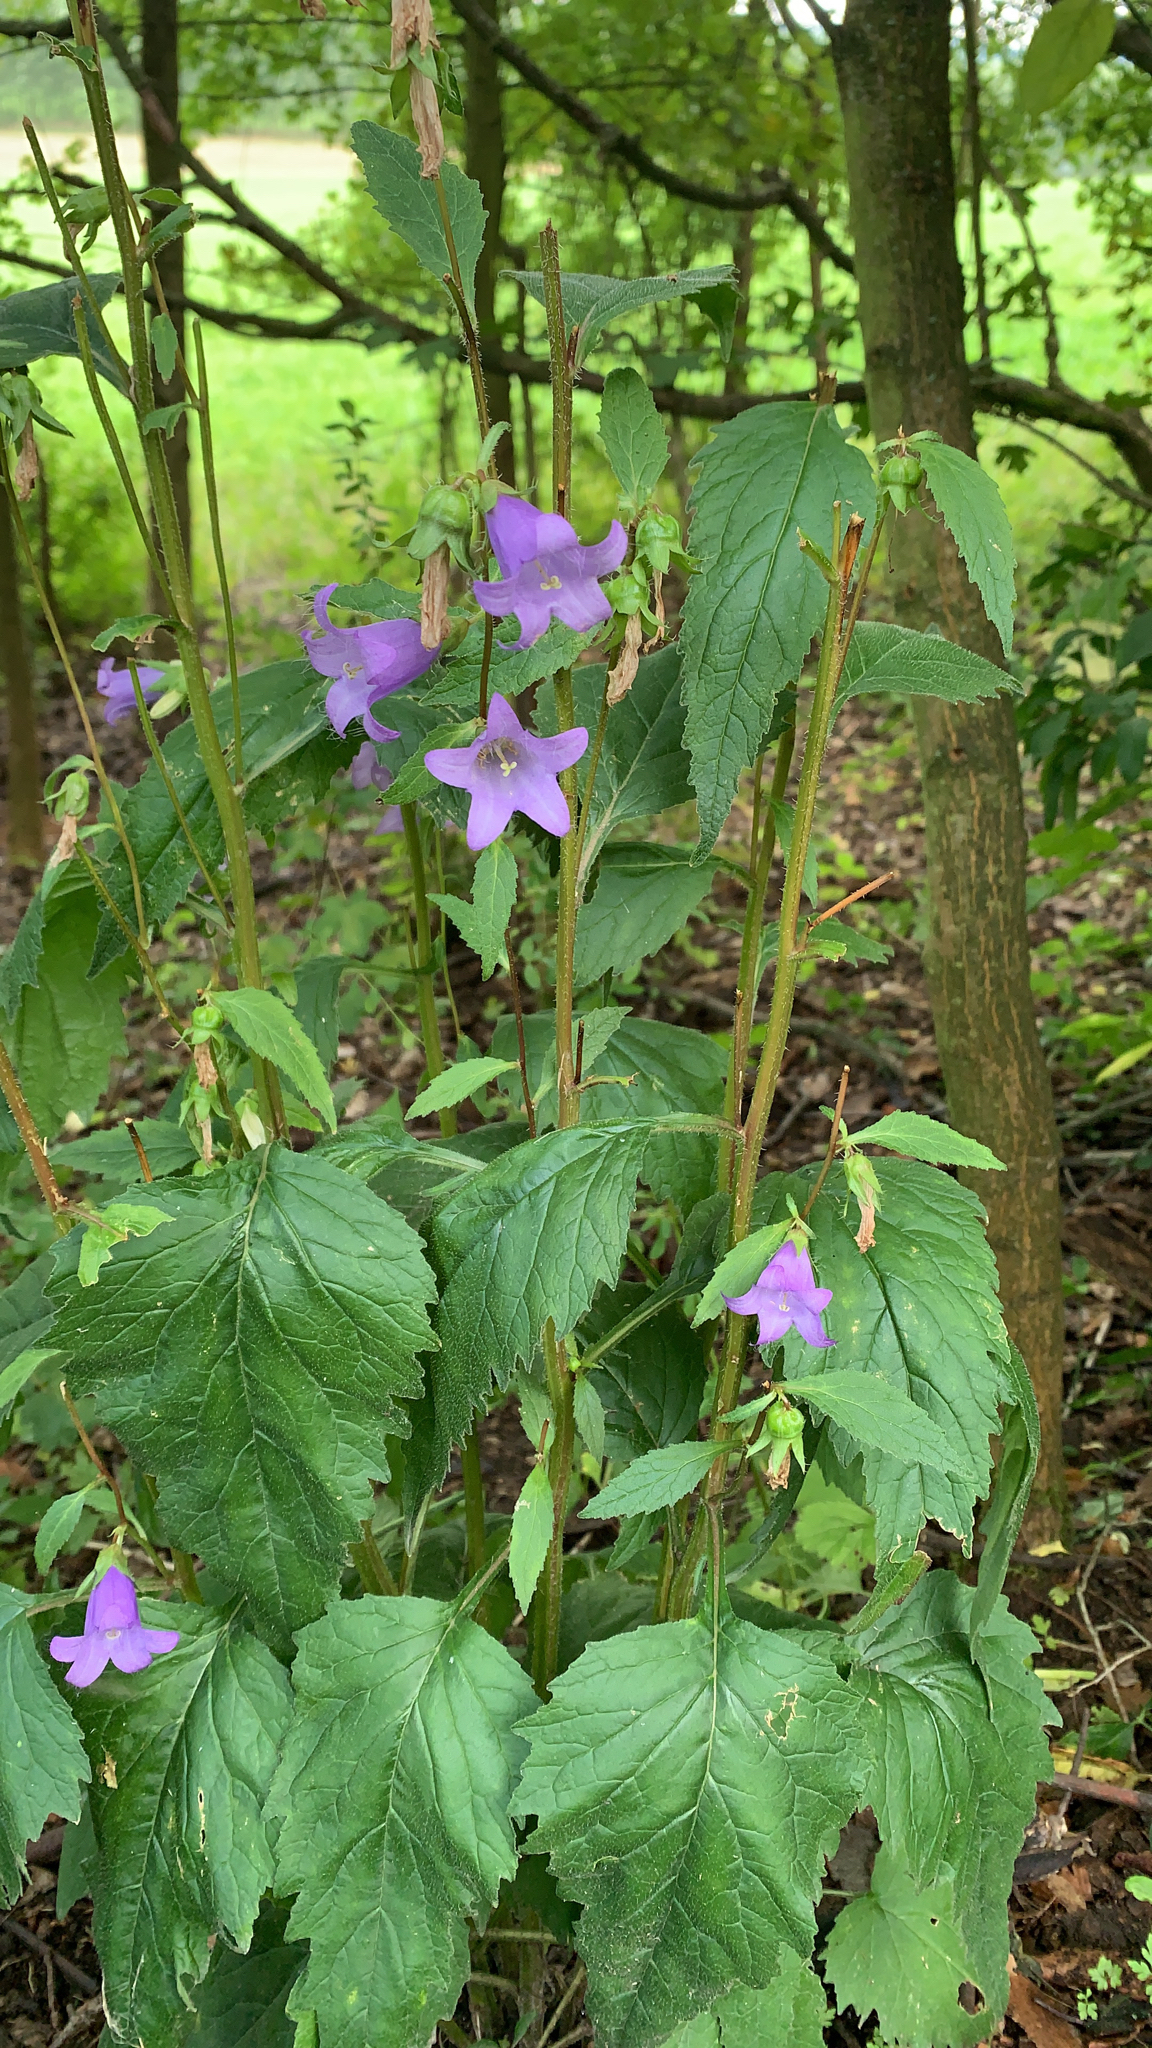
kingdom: Plantae
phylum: Tracheophyta
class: Magnoliopsida
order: Asterales
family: Campanulaceae
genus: Campanula
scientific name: Campanula trachelium
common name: Nettle-leaved bellflower
